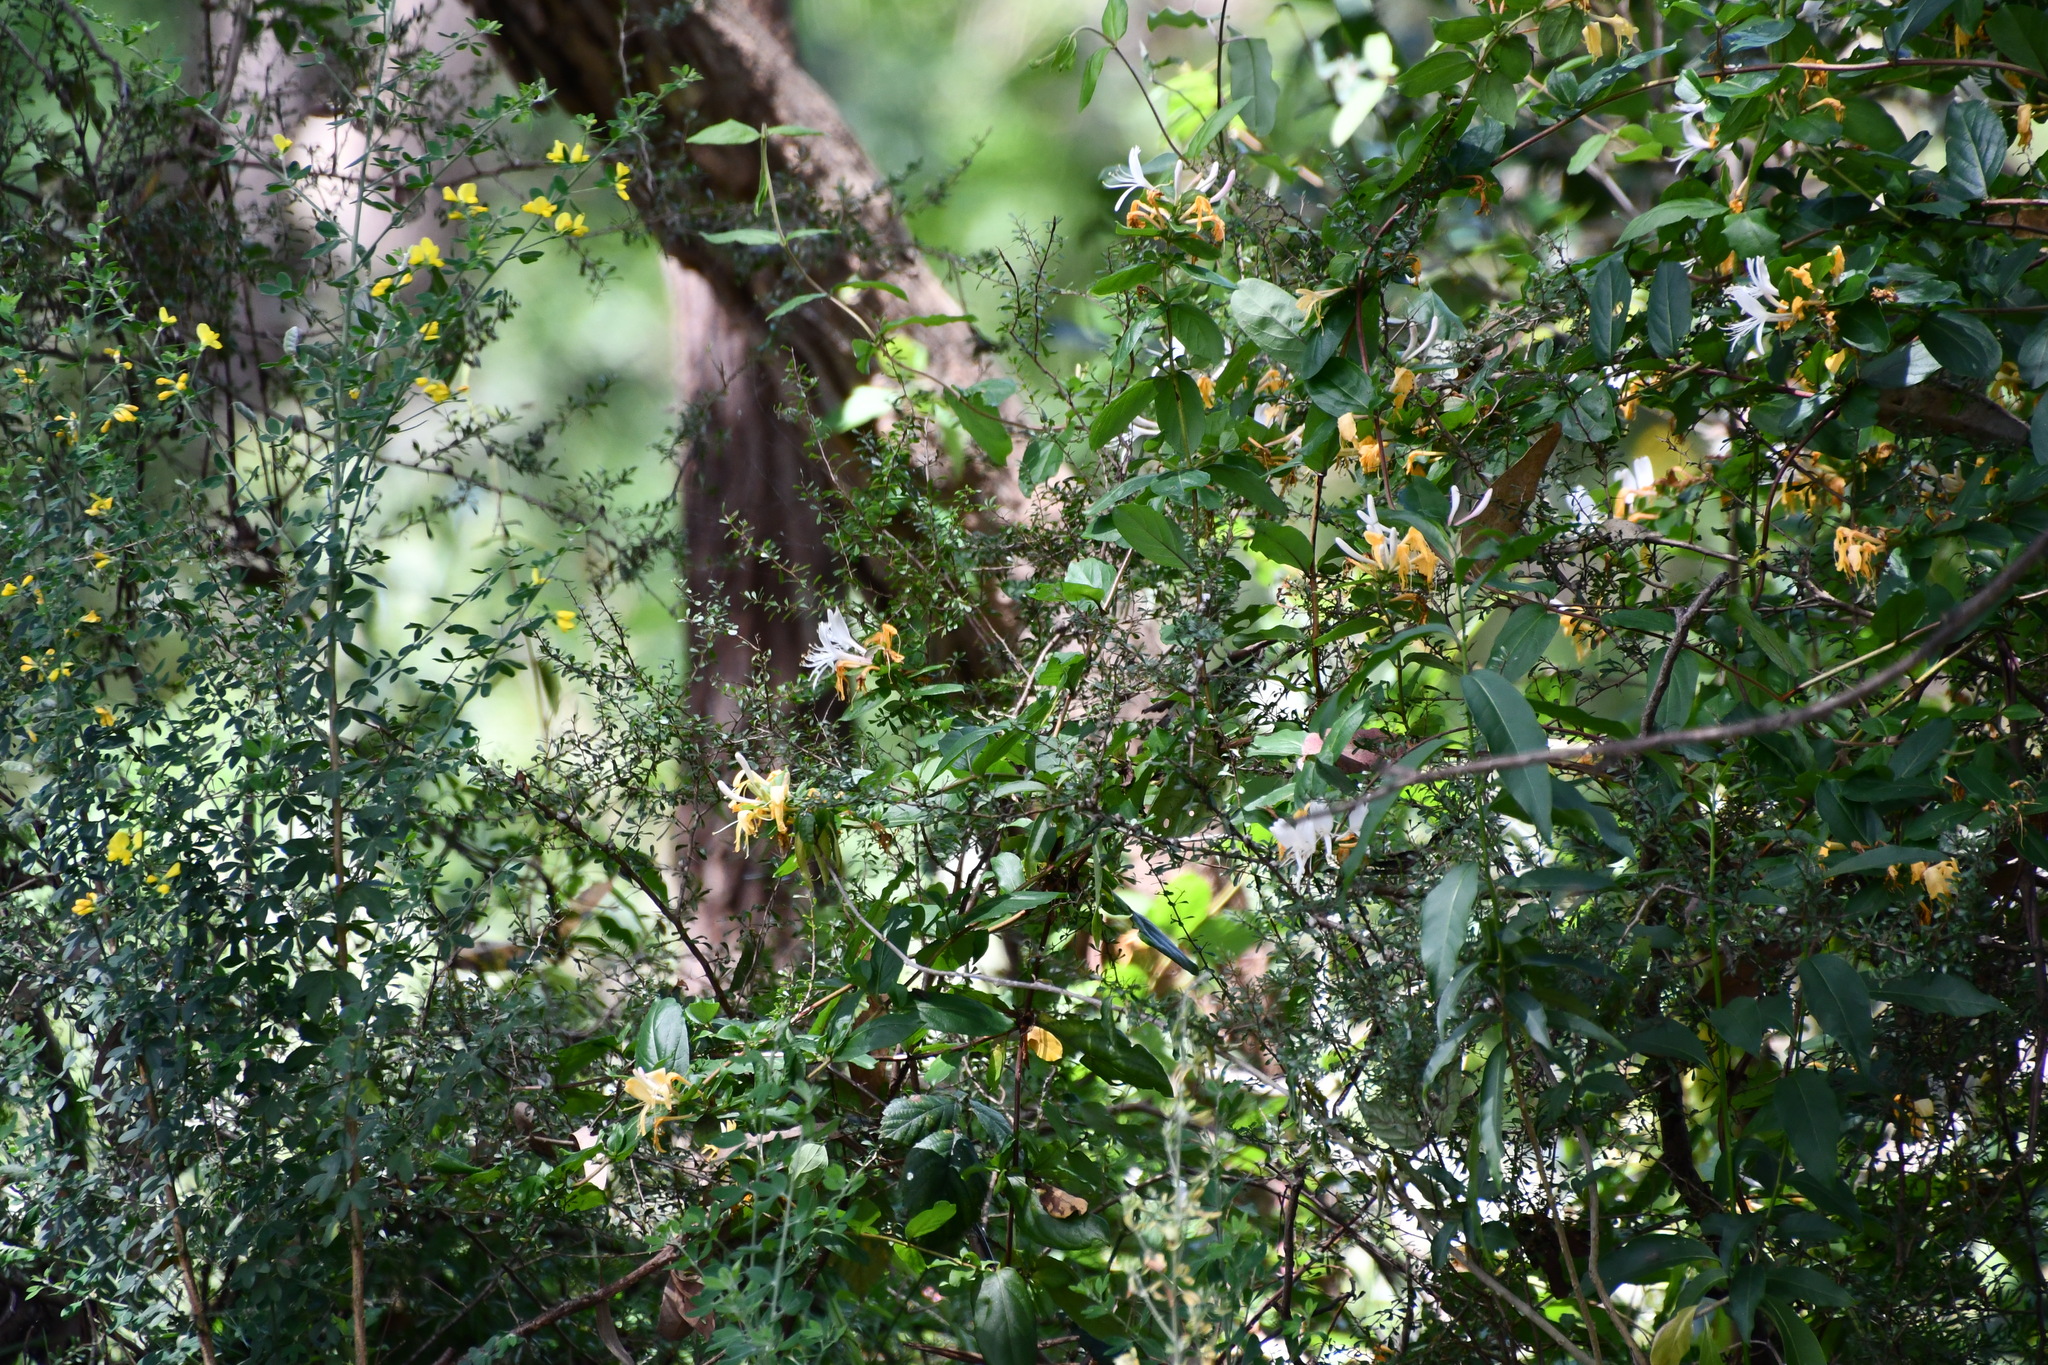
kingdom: Plantae
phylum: Tracheophyta
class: Magnoliopsida
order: Dipsacales
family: Caprifoliaceae
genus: Lonicera
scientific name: Lonicera japonica
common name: Japanese honeysuckle
